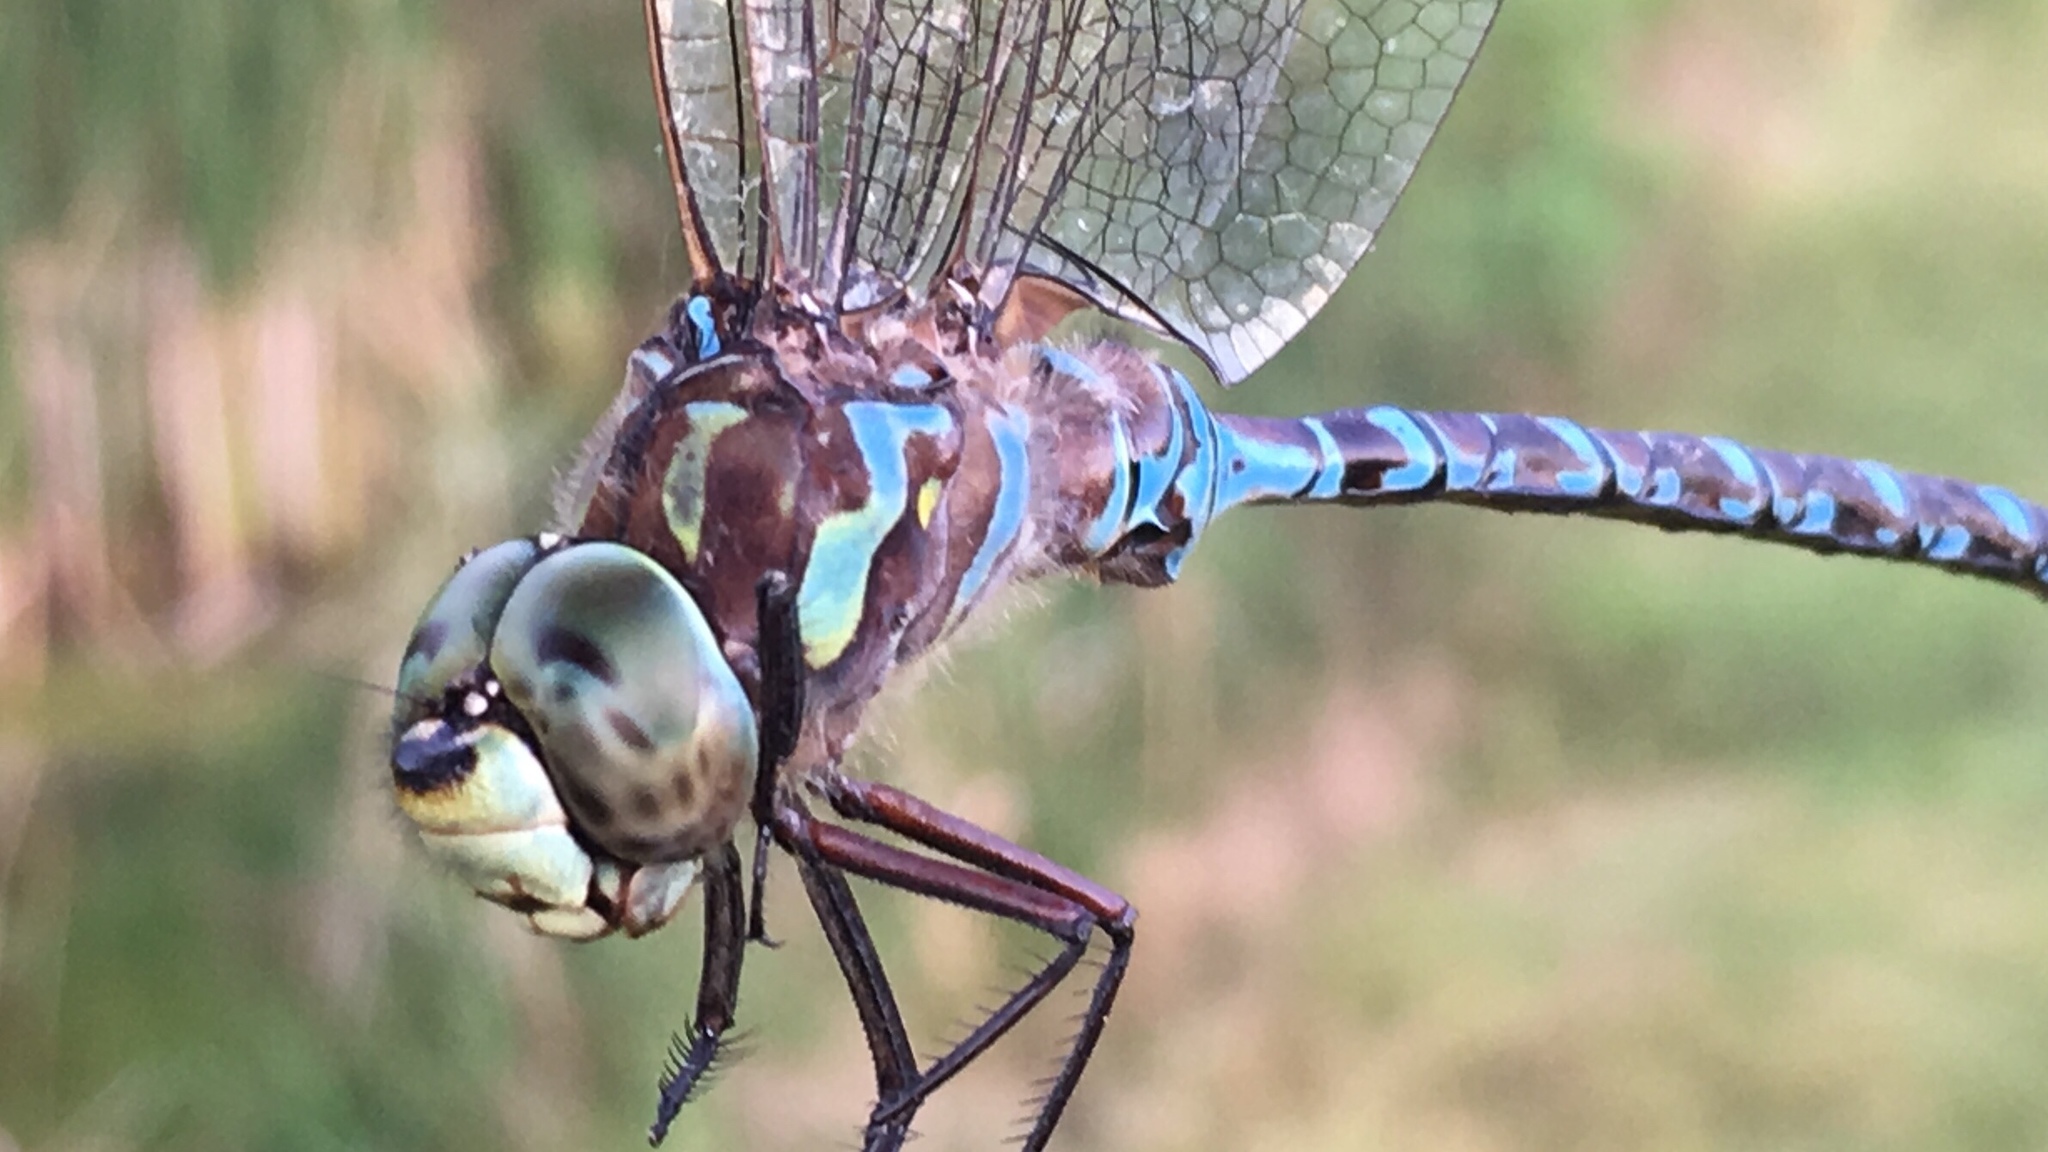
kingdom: Animalia
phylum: Arthropoda
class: Insecta
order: Odonata
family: Aeshnidae
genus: Aeshna
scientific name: Aeshna canadensis
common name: Canada darner
